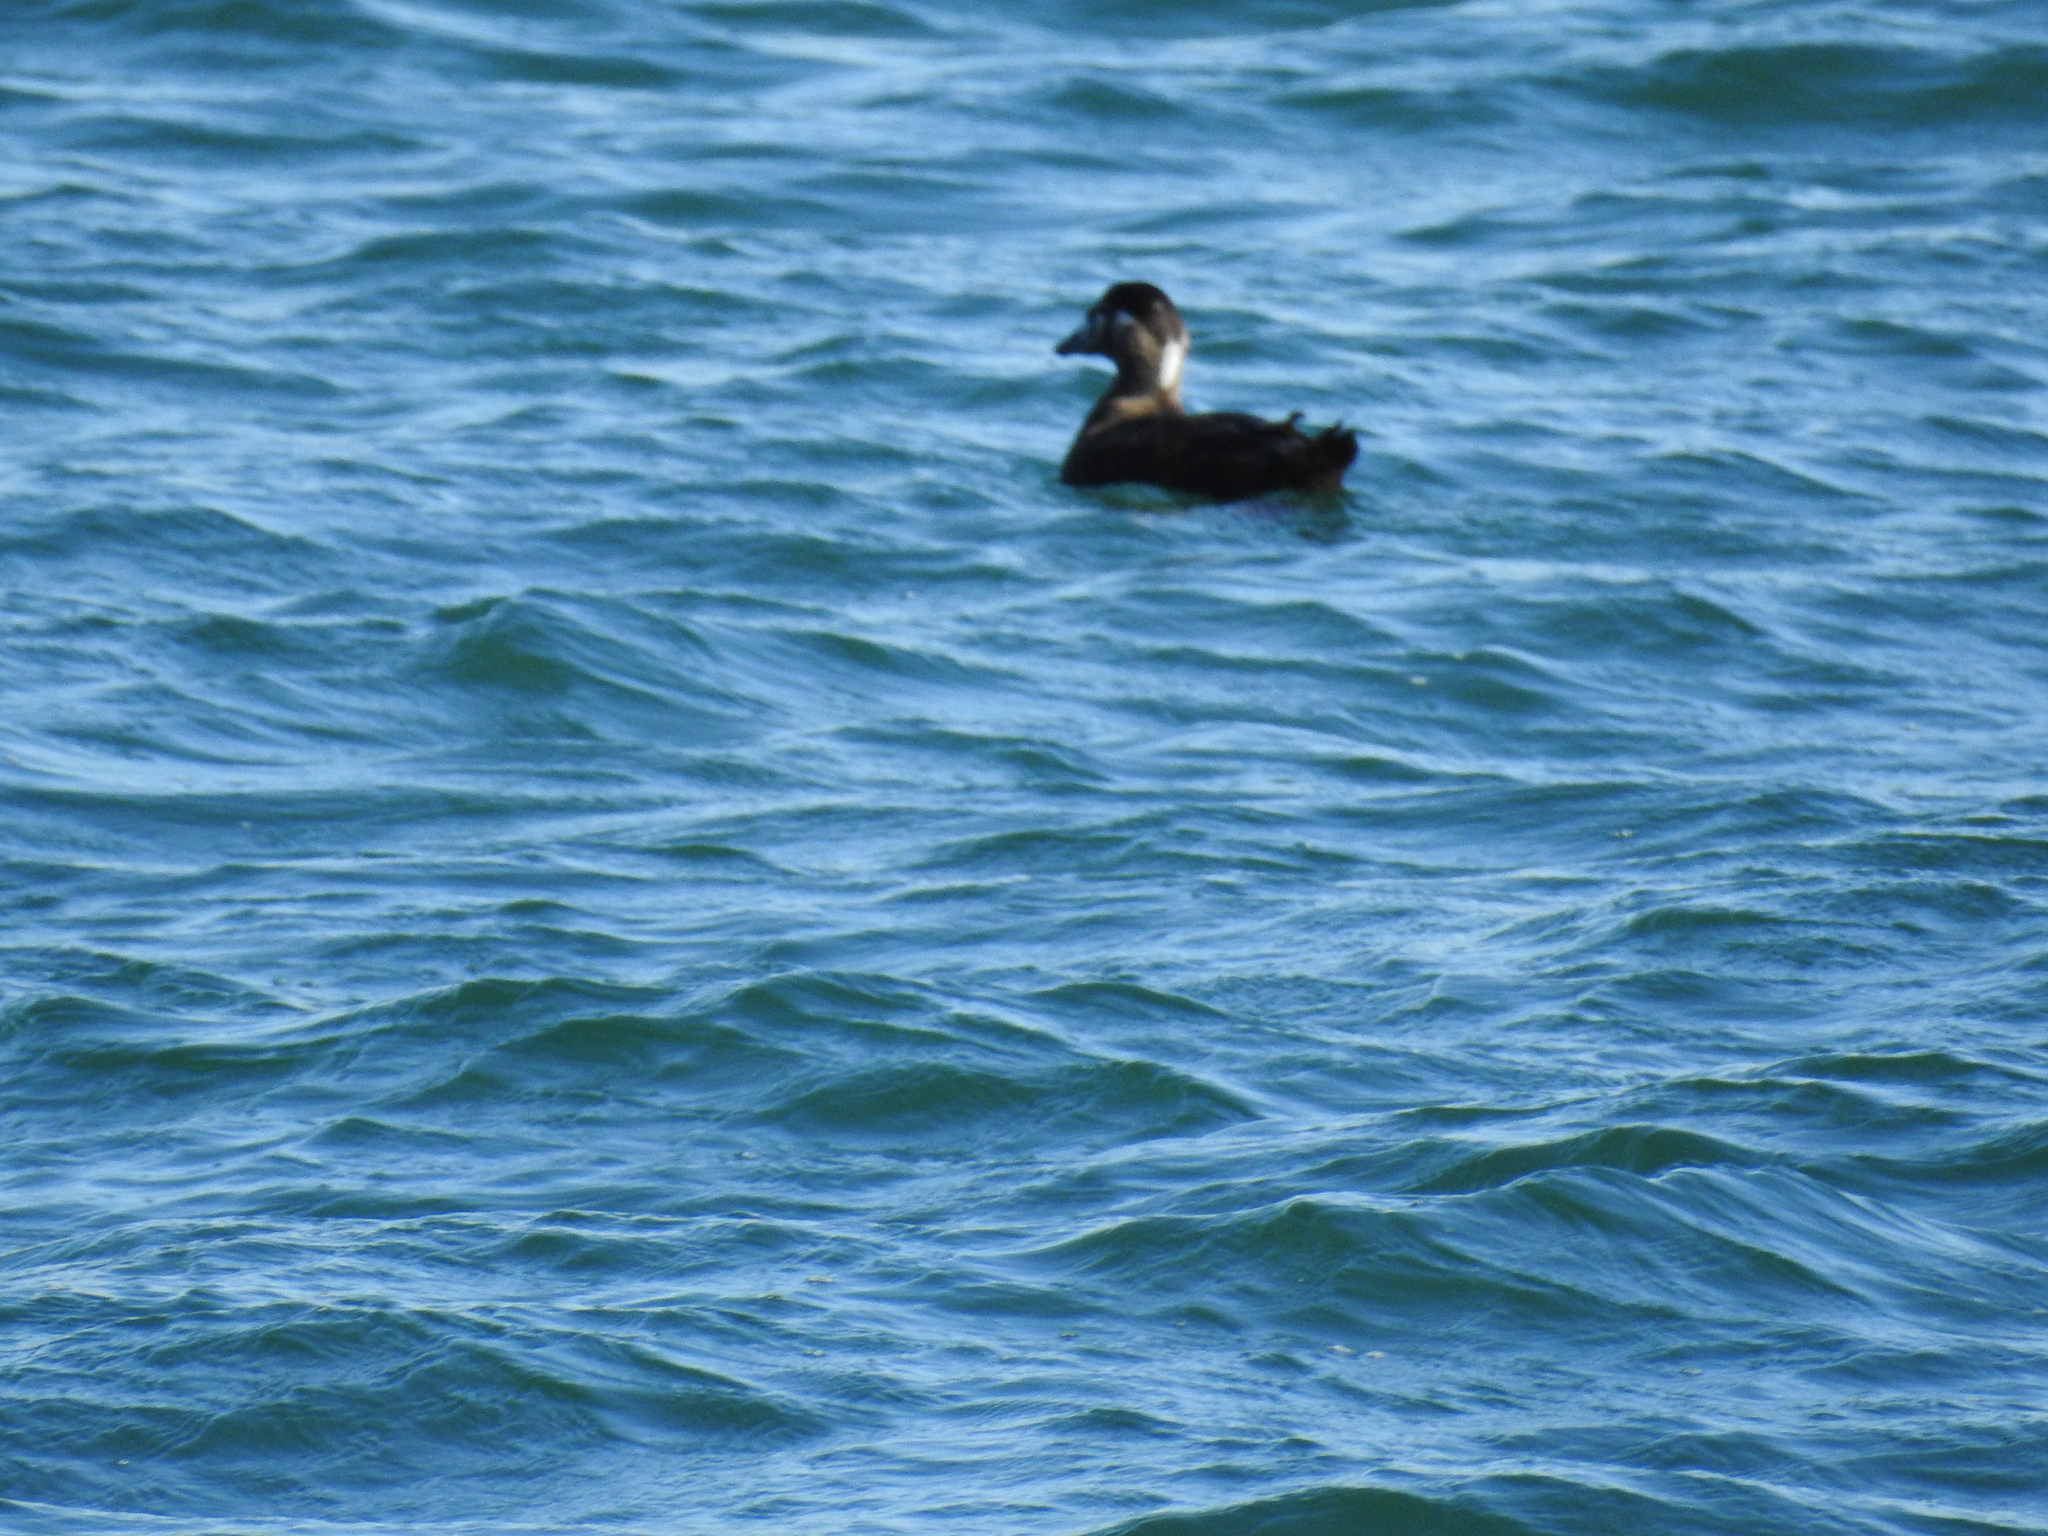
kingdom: Animalia
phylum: Chordata
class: Aves
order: Anseriformes
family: Anatidae
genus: Melanitta
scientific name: Melanitta perspicillata
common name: Surf scoter
